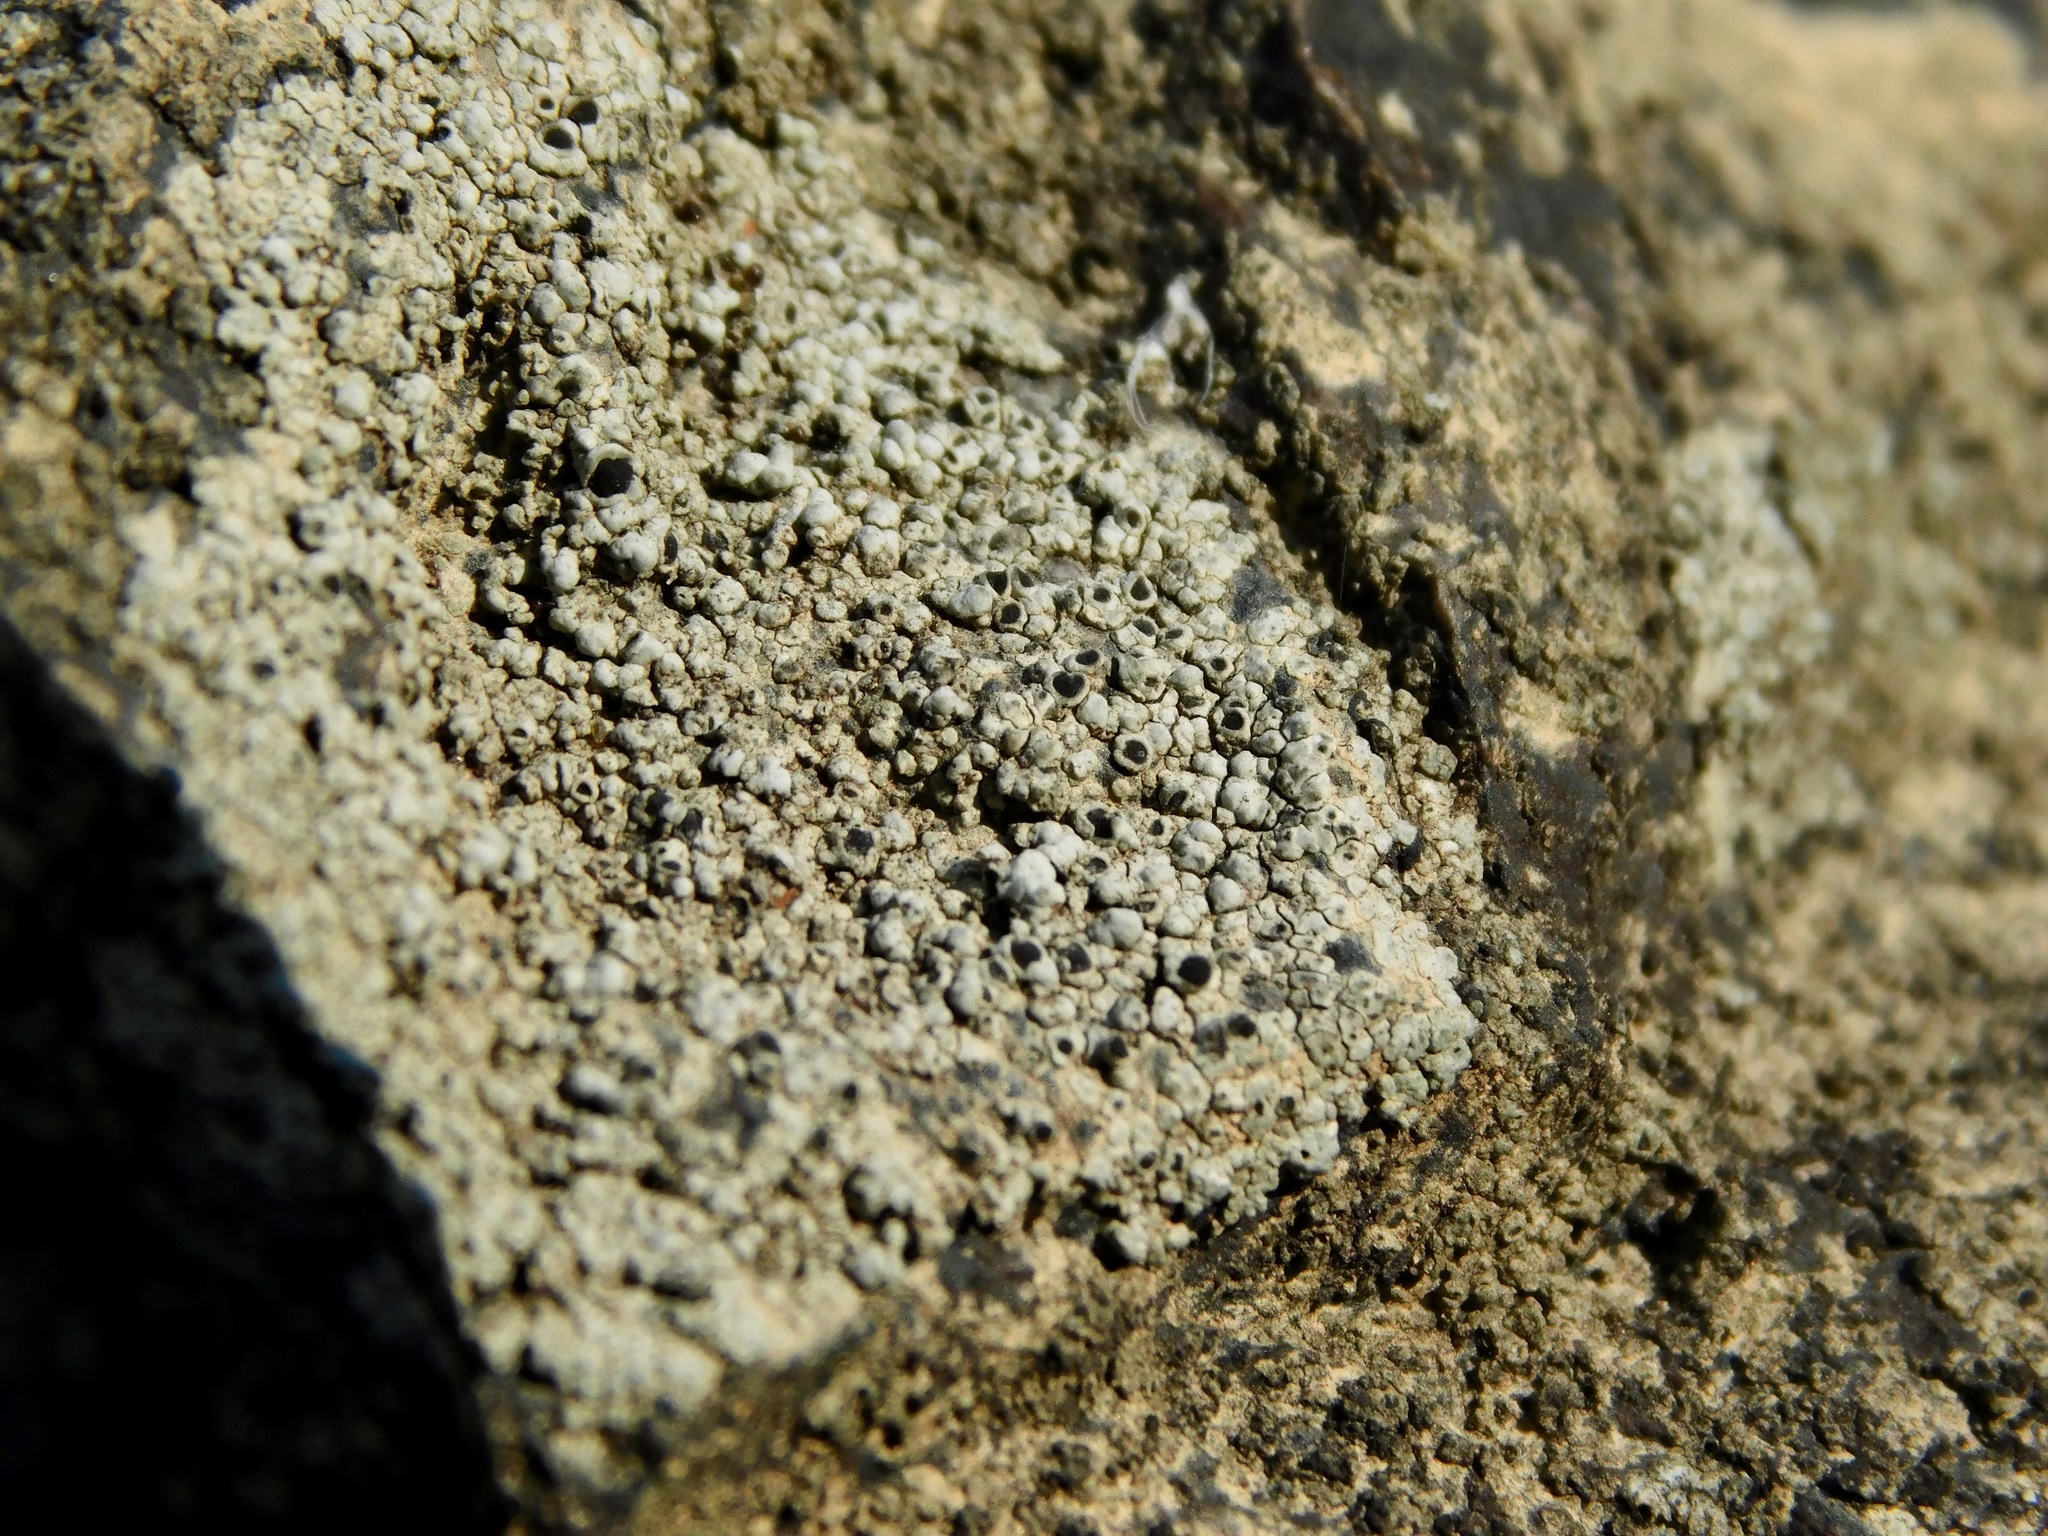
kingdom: Fungi
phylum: Ascomycota
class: Lecanoromycetes
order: Caliciales
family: Physciaceae
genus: Mischoblastia
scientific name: Mischoblastia oxydata
